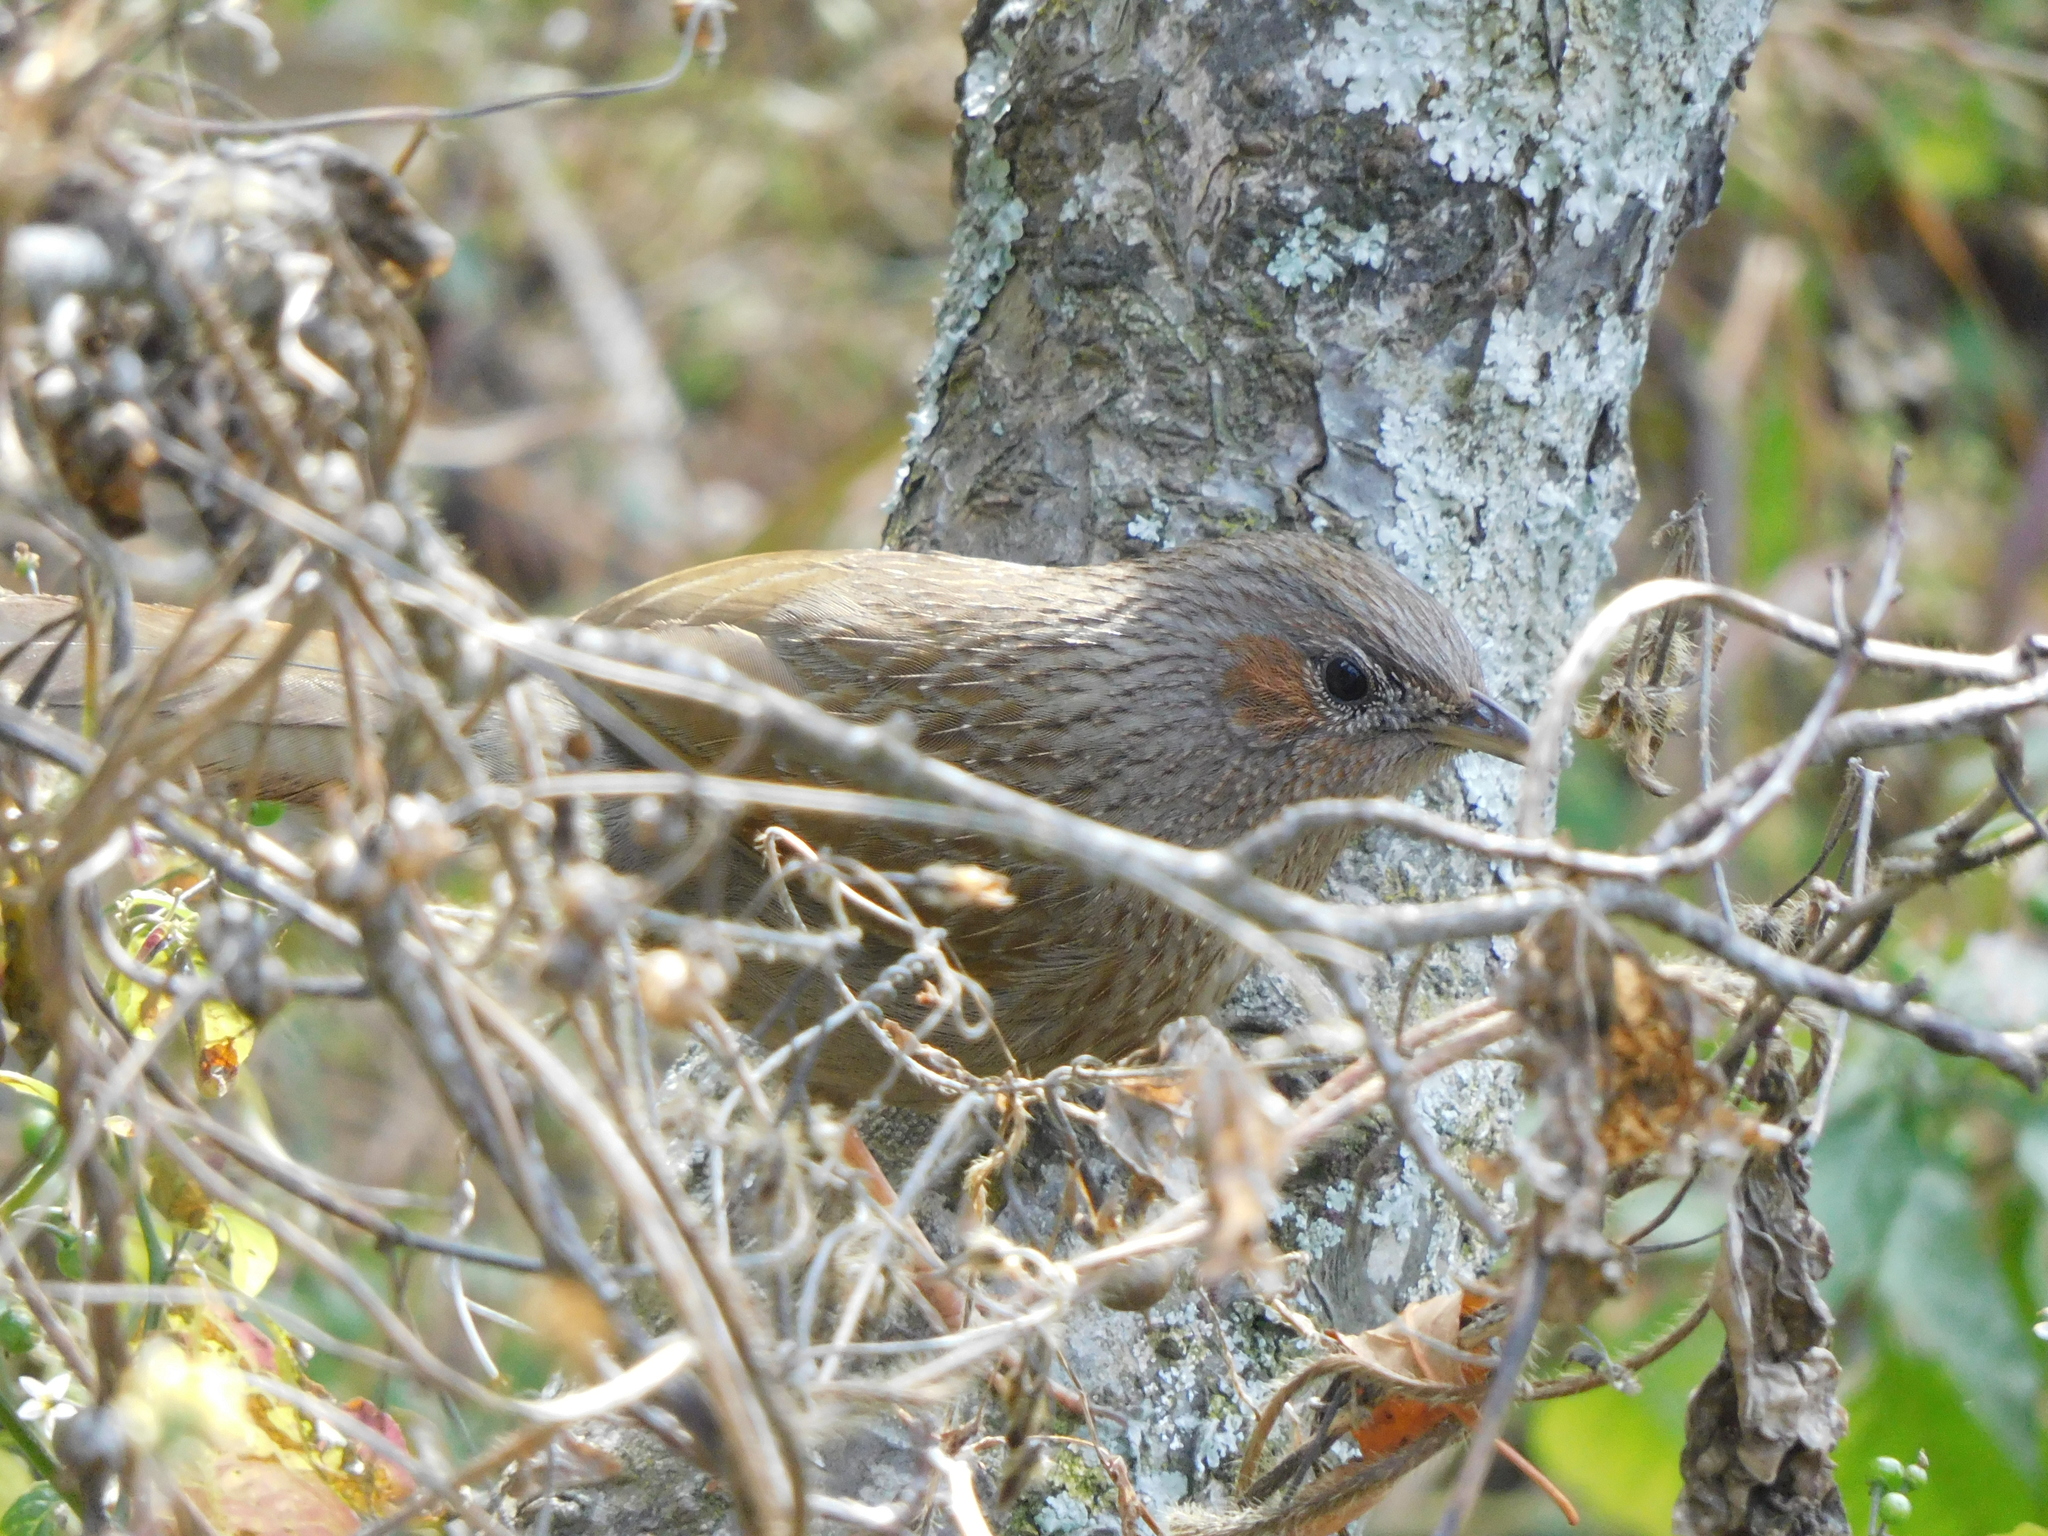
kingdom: Animalia
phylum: Chordata
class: Aves
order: Passeriformes
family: Leiothrichidae
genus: Trochalopteron
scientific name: Trochalopteron lineatum
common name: Streaked laughingthrush
